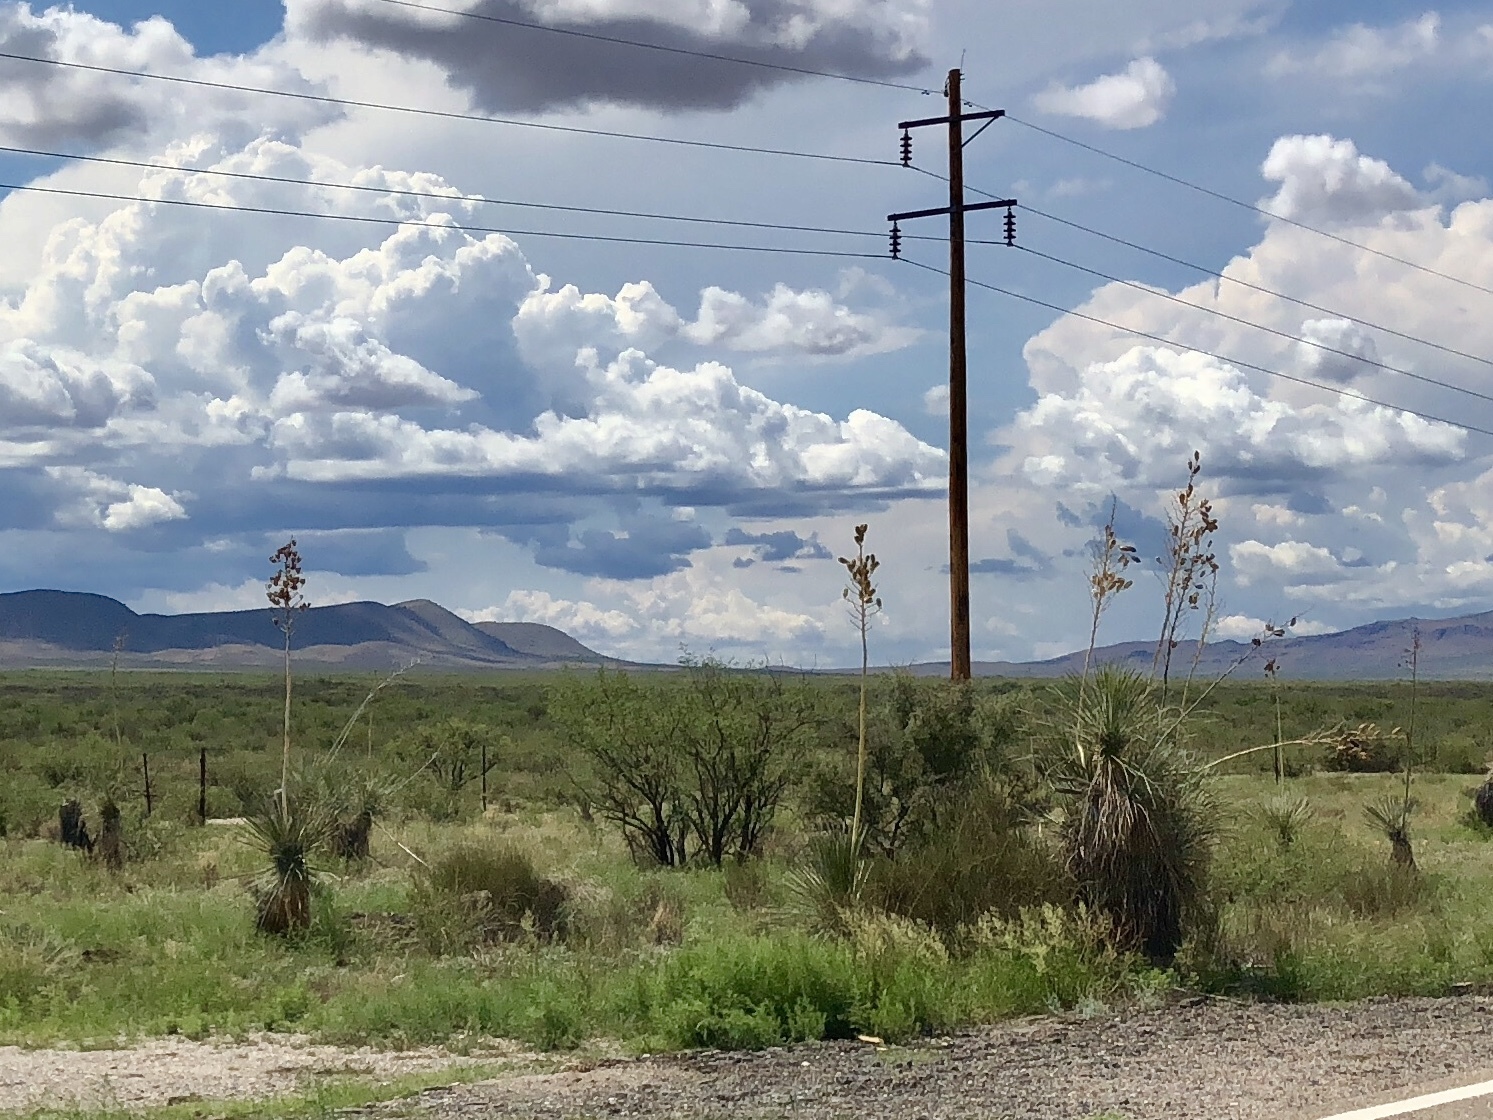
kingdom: Plantae
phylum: Tracheophyta
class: Liliopsida
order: Asparagales
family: Asparagaceae
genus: Yucca
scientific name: Yucca elata
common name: Palmella
